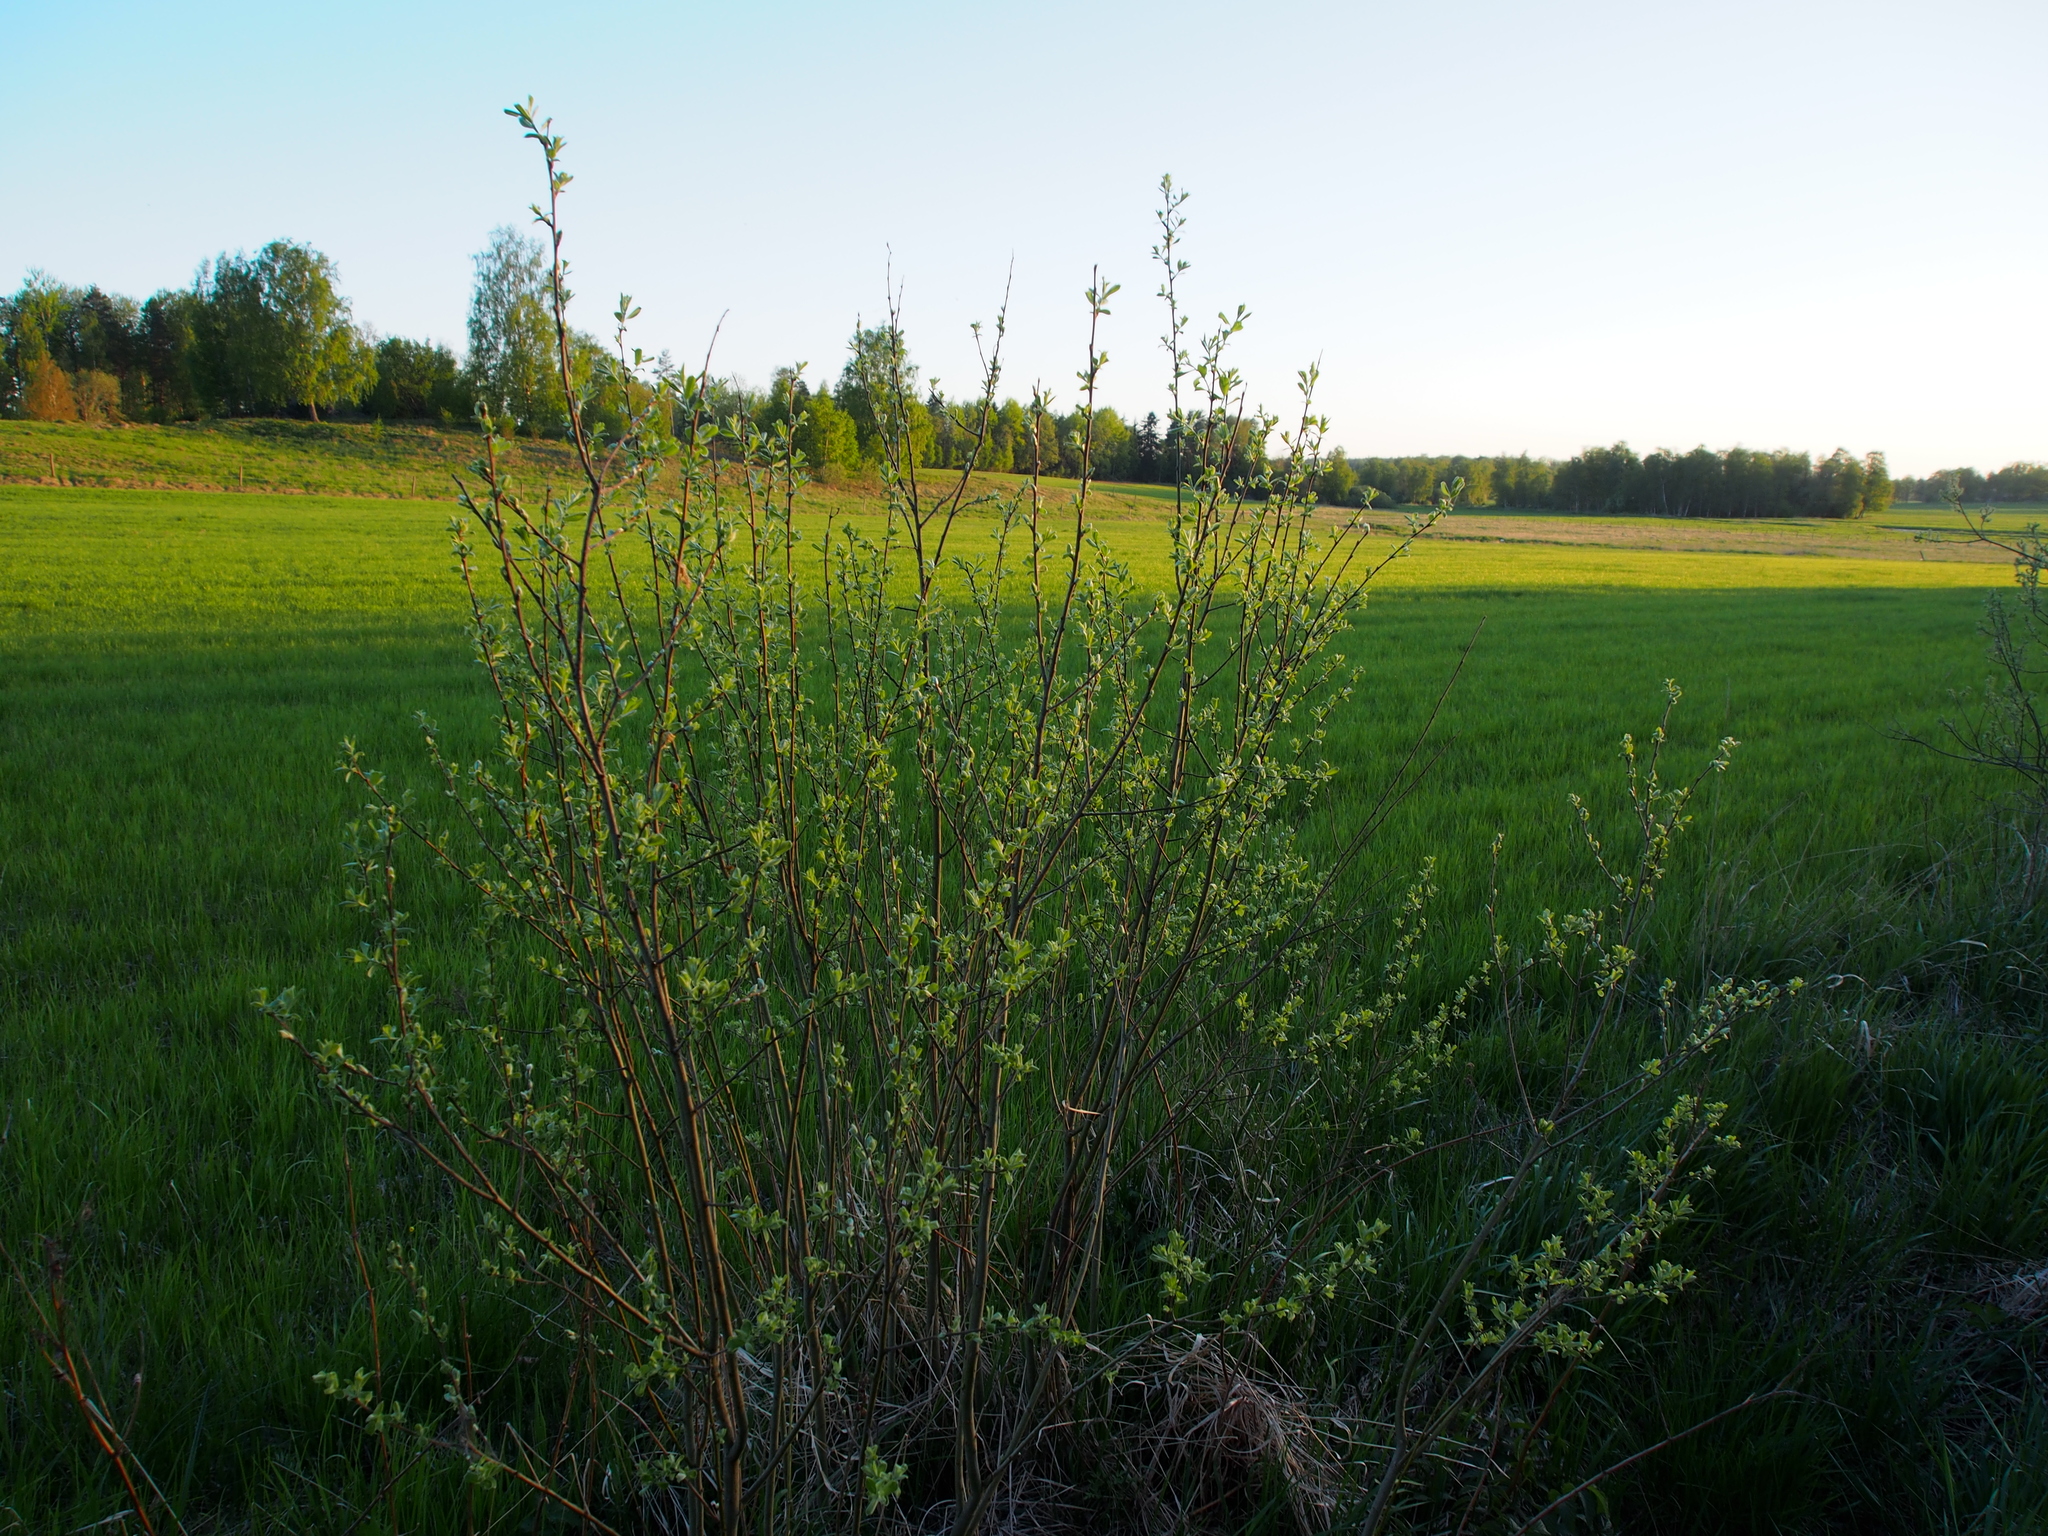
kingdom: Plantae
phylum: Tracheophyta
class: Magnoliopsida
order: Malpighiales
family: Salicaceae
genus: Salix
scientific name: Salix caprea
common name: Goat willow
